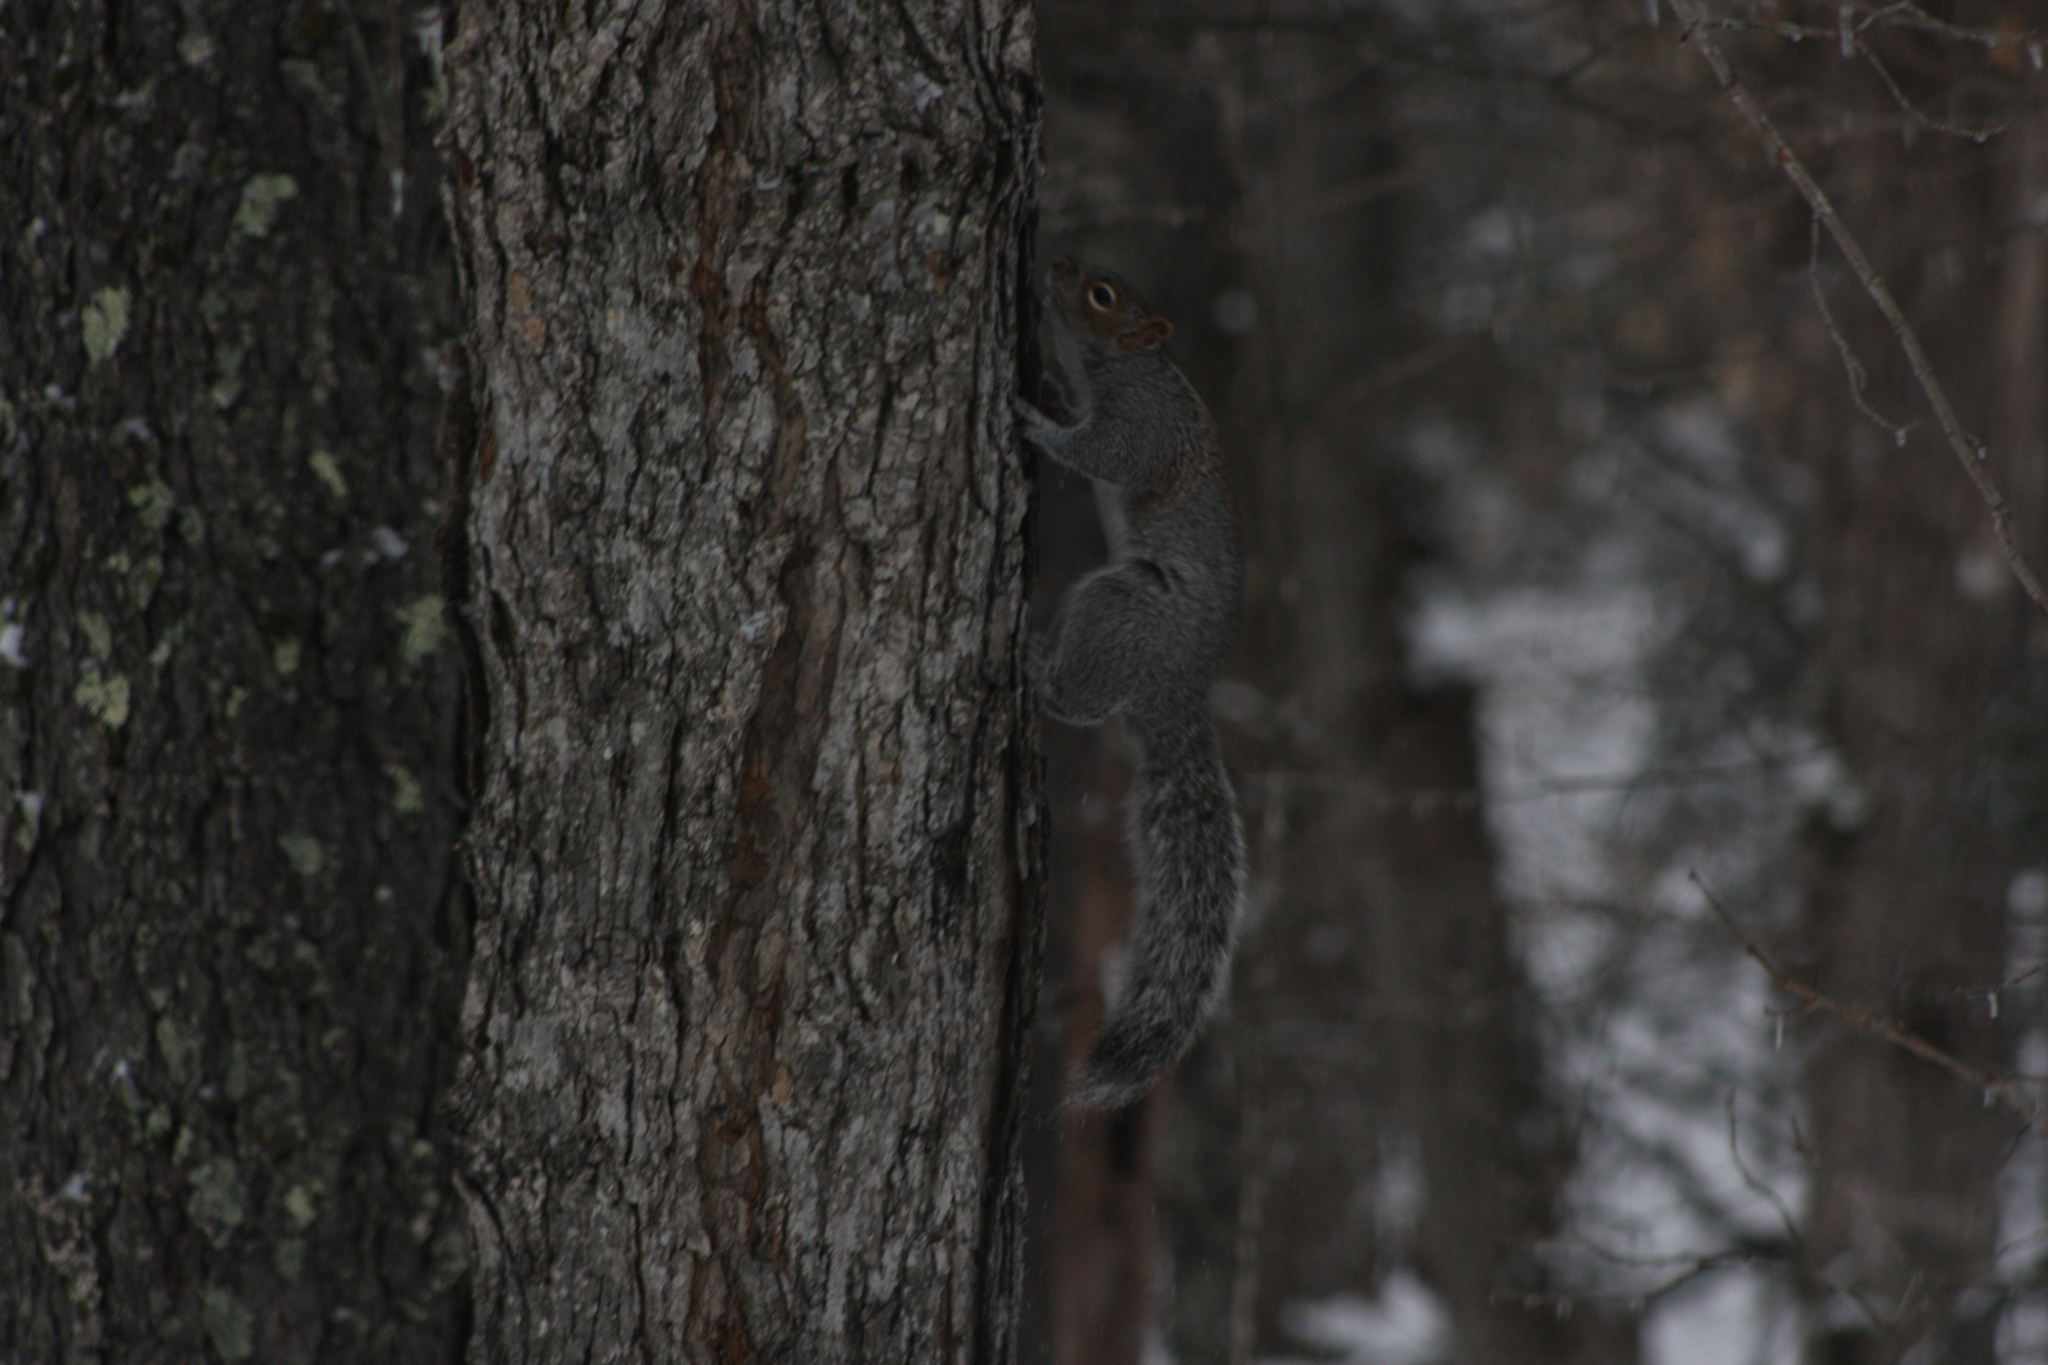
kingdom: Animalia
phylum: Chordata
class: Mammalia
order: Rodentia
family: Sciuridae
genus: Sciurus
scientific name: Sciurus carolinensis
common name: Eastern gray squirrel
